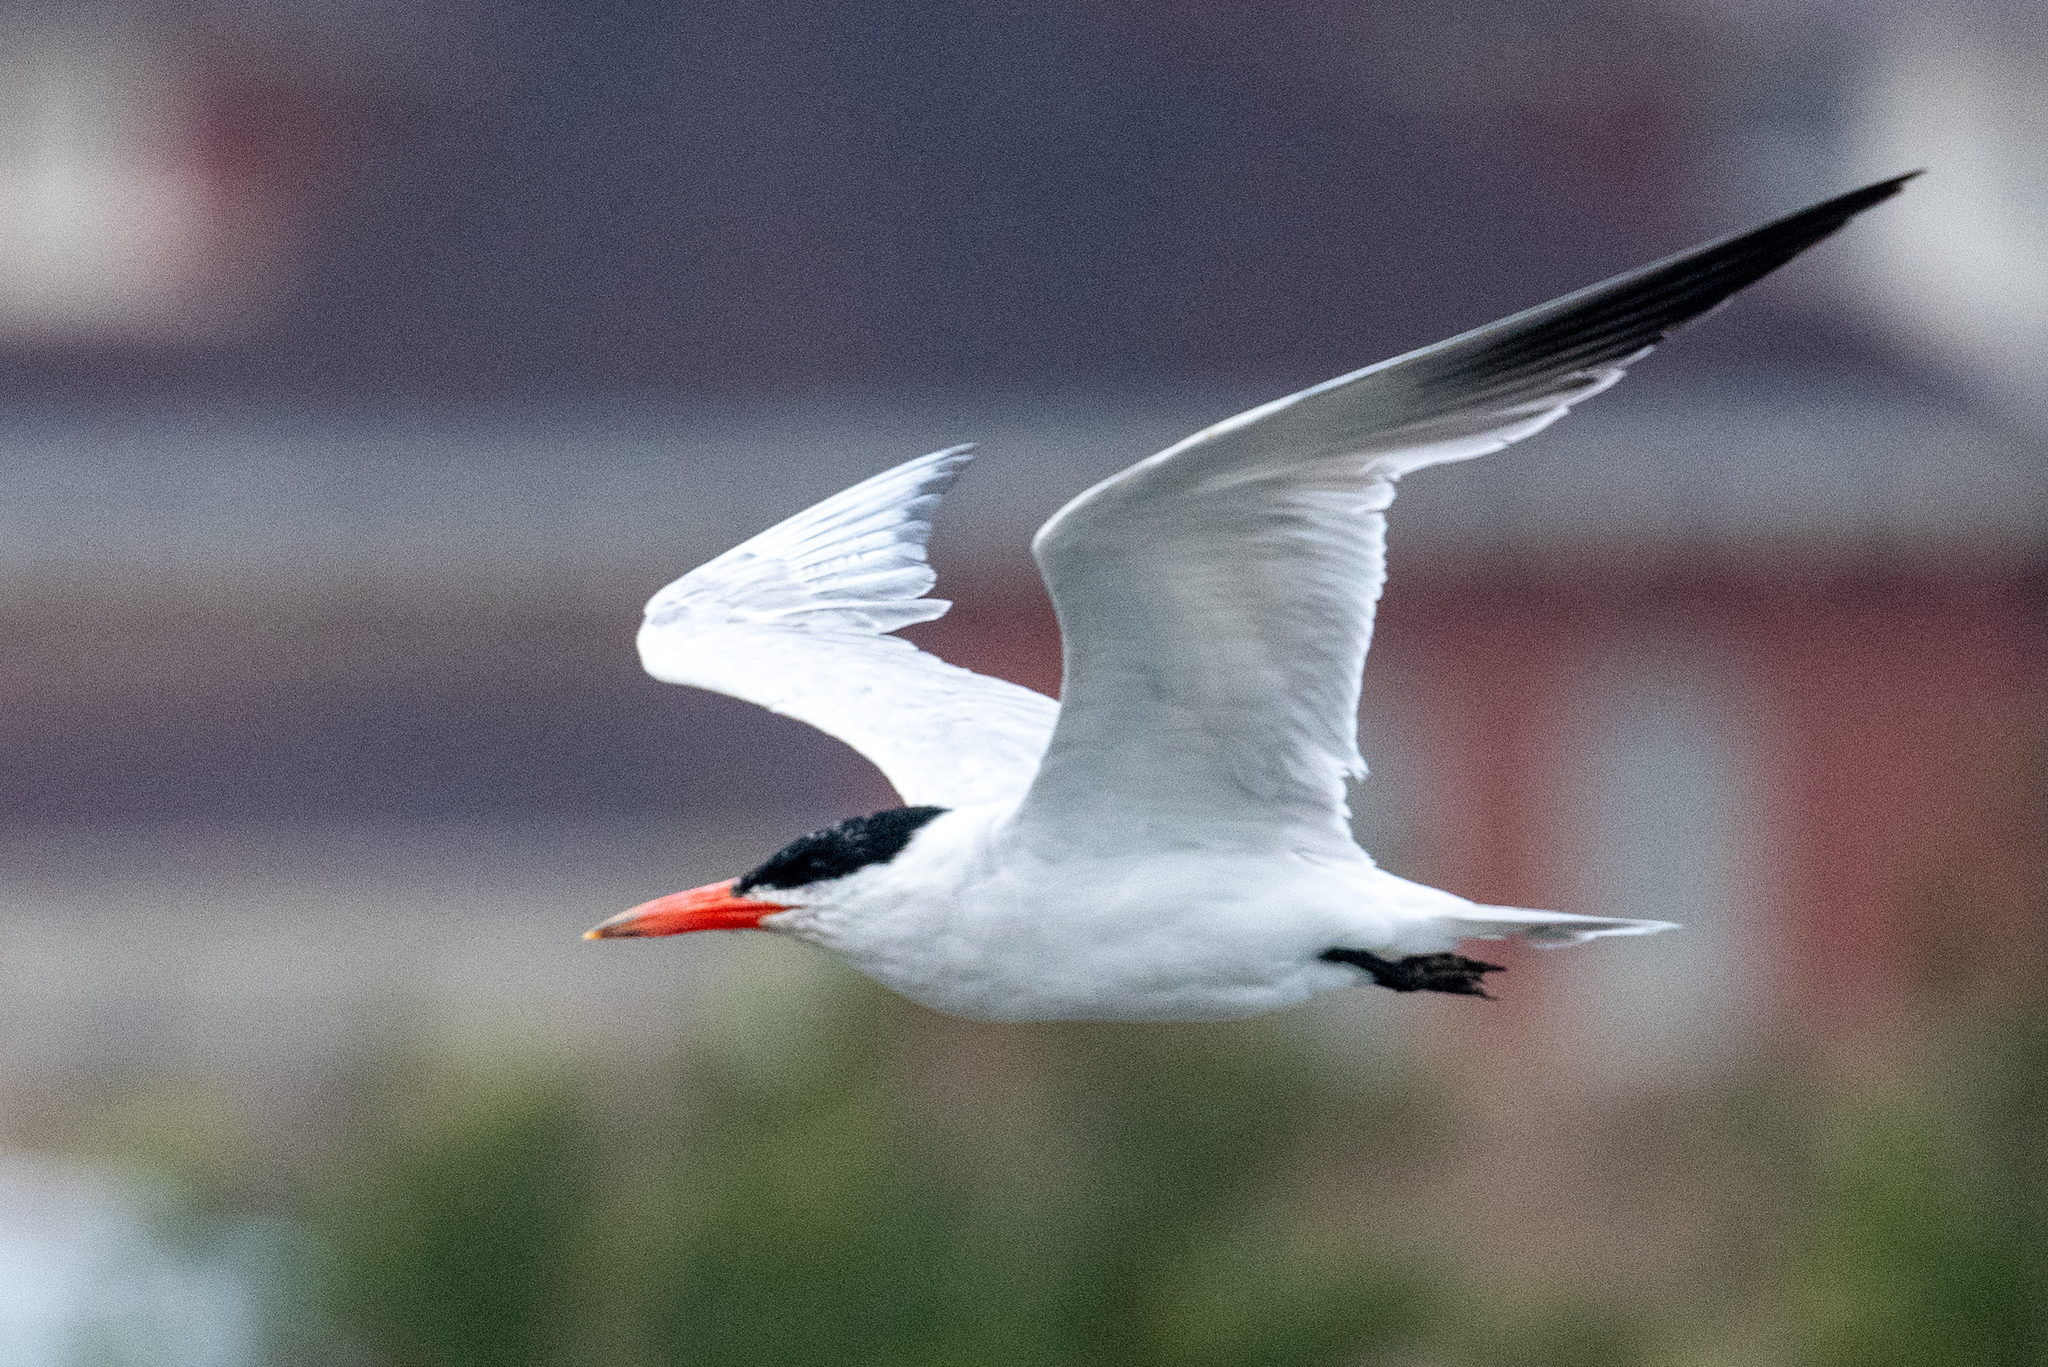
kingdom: Animalia
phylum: Chordata
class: Aves
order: Charadriiformes
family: Laridae
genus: Hydroprogne
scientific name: Hydroprogne caspia
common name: Caspian tern
